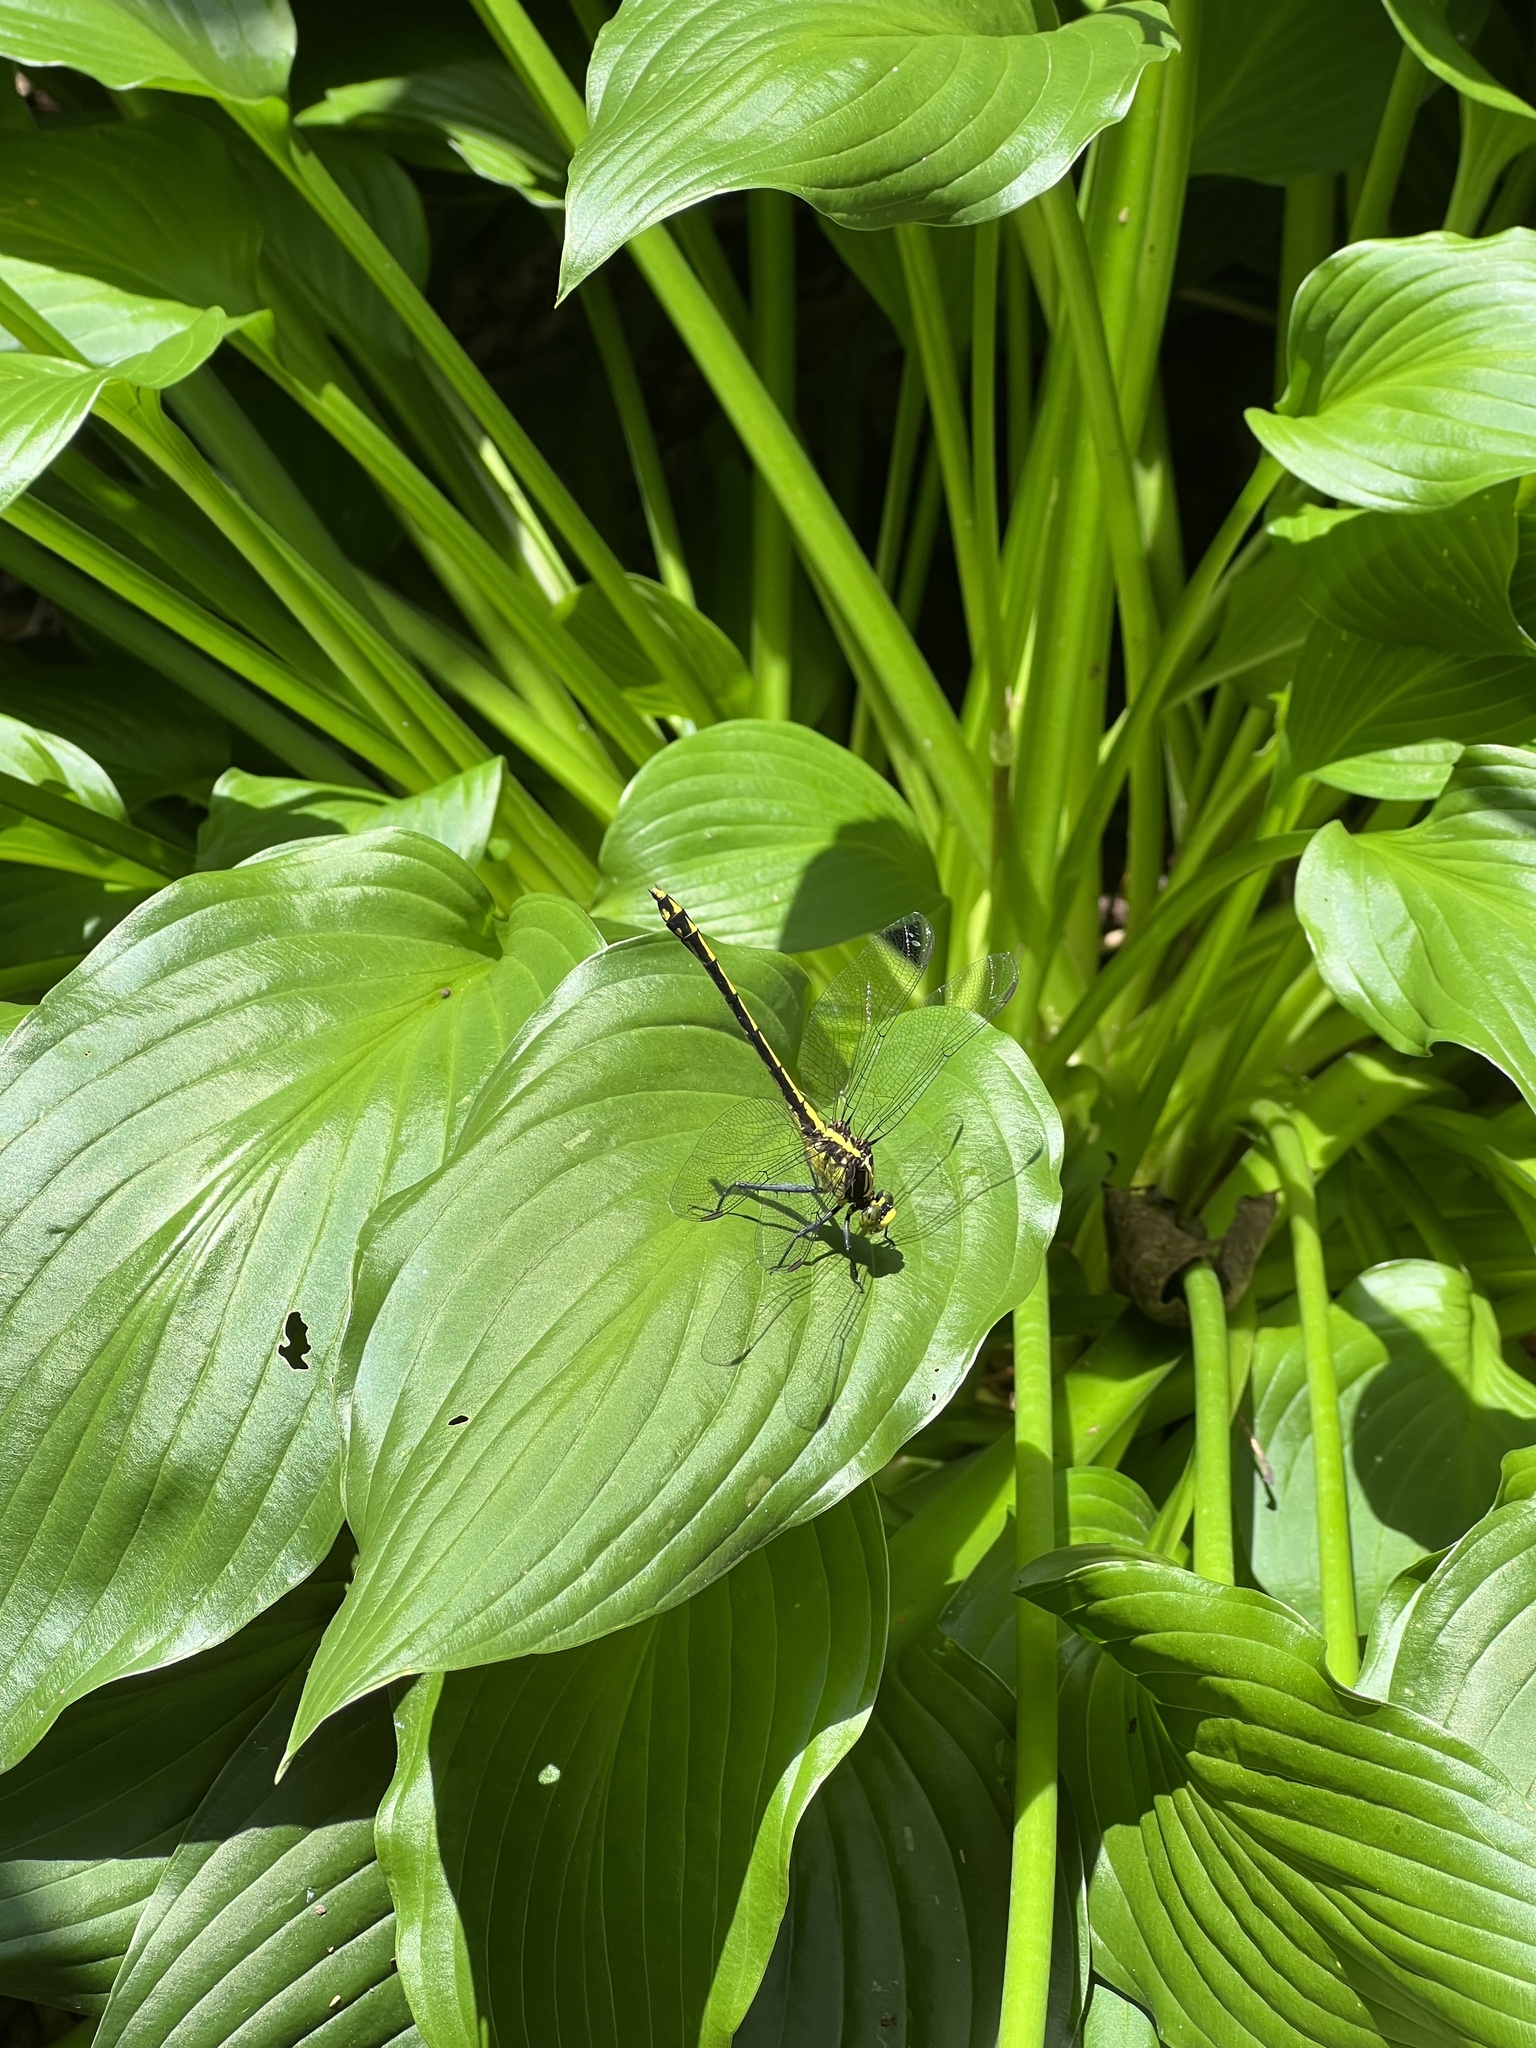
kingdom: Animalia
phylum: Arthropoda
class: Insecta
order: Odonata
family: Gomphidae
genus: Dromogomphus
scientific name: Dromogomphus spinosus
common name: Black-shouldered spinyleg
